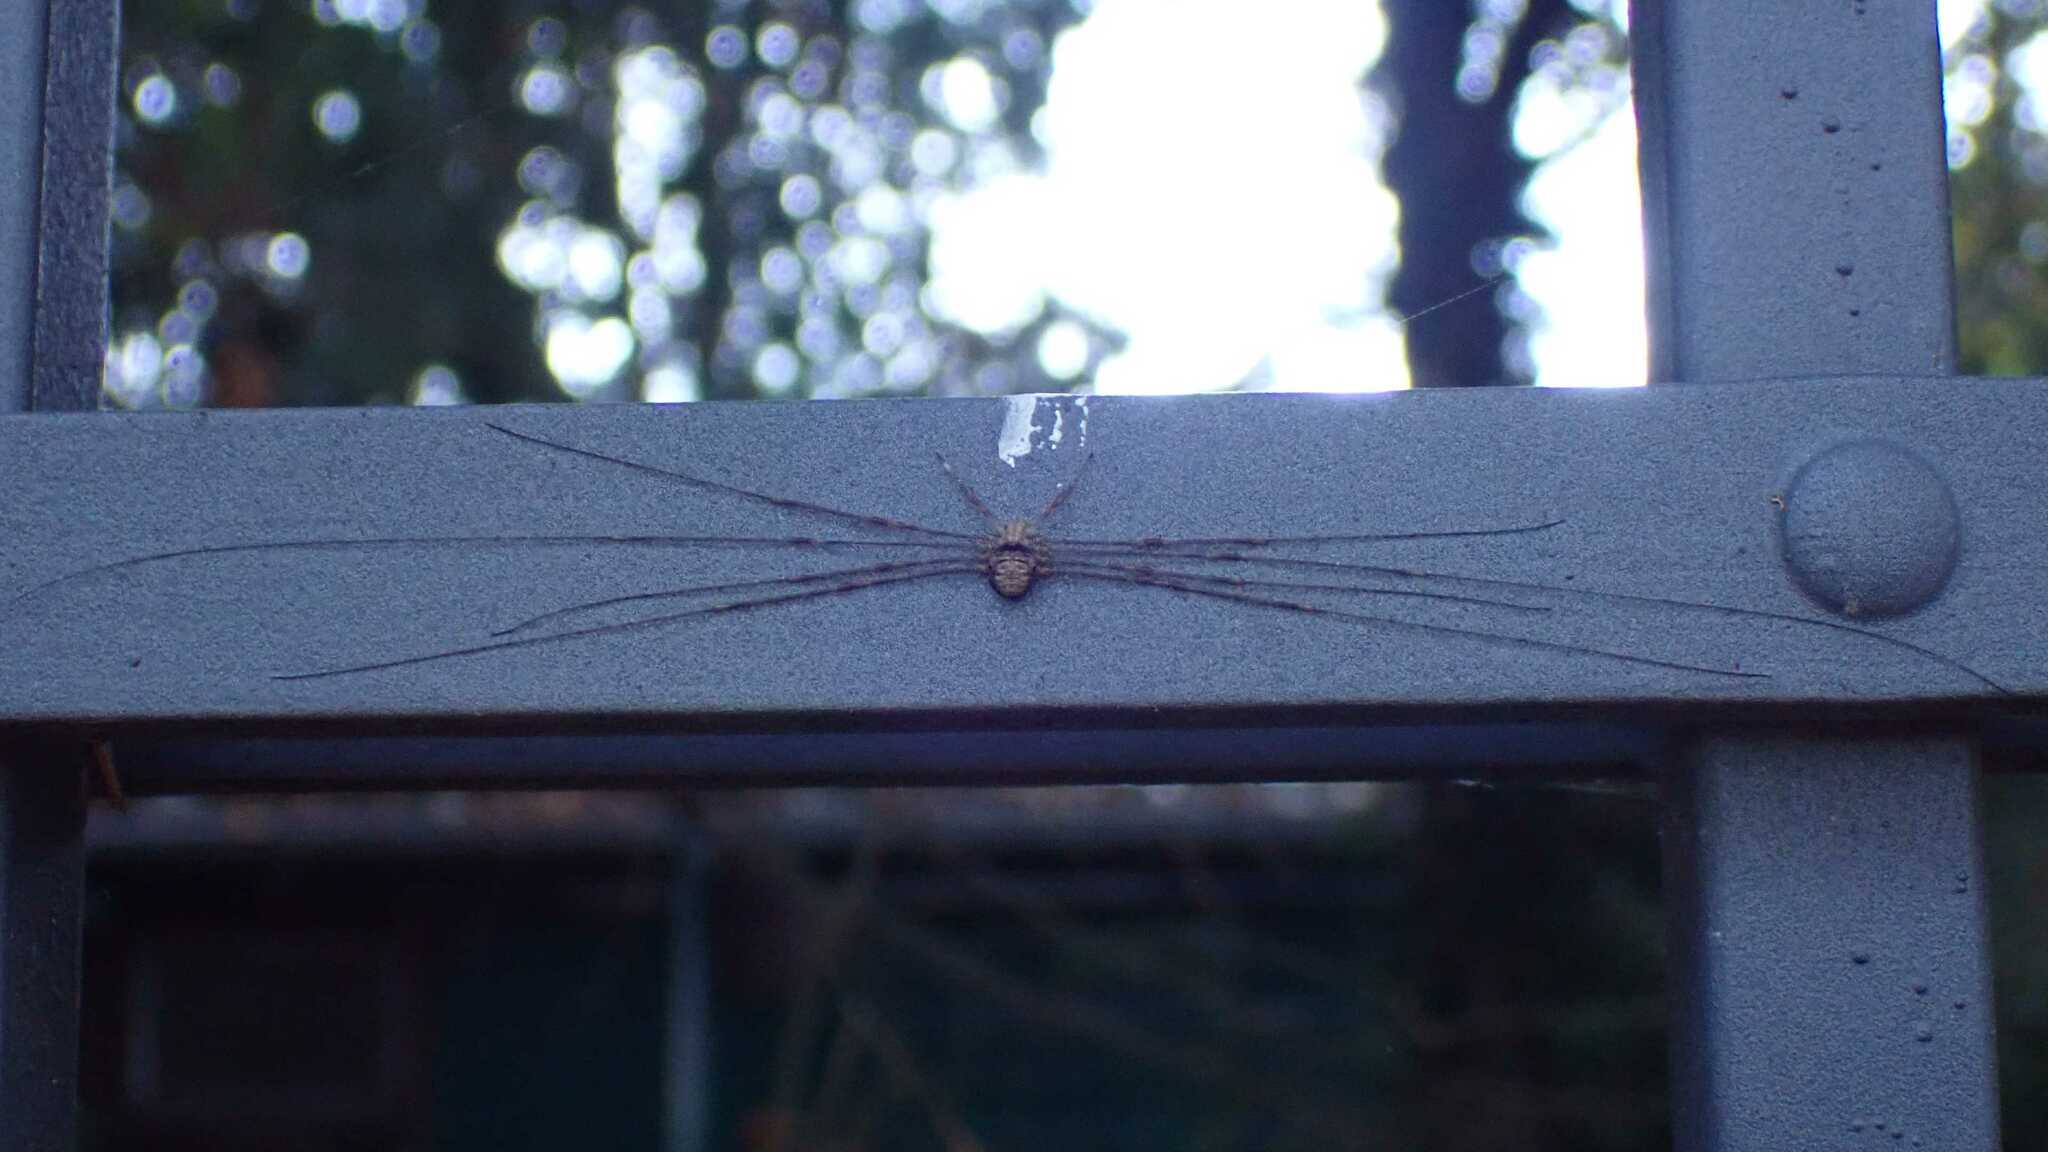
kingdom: Animalia
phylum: Arthropoda
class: Arachnida
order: Opiliones
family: Phalangiidae
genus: Dicranopalpus
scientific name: Dicranopalpus ramosus
